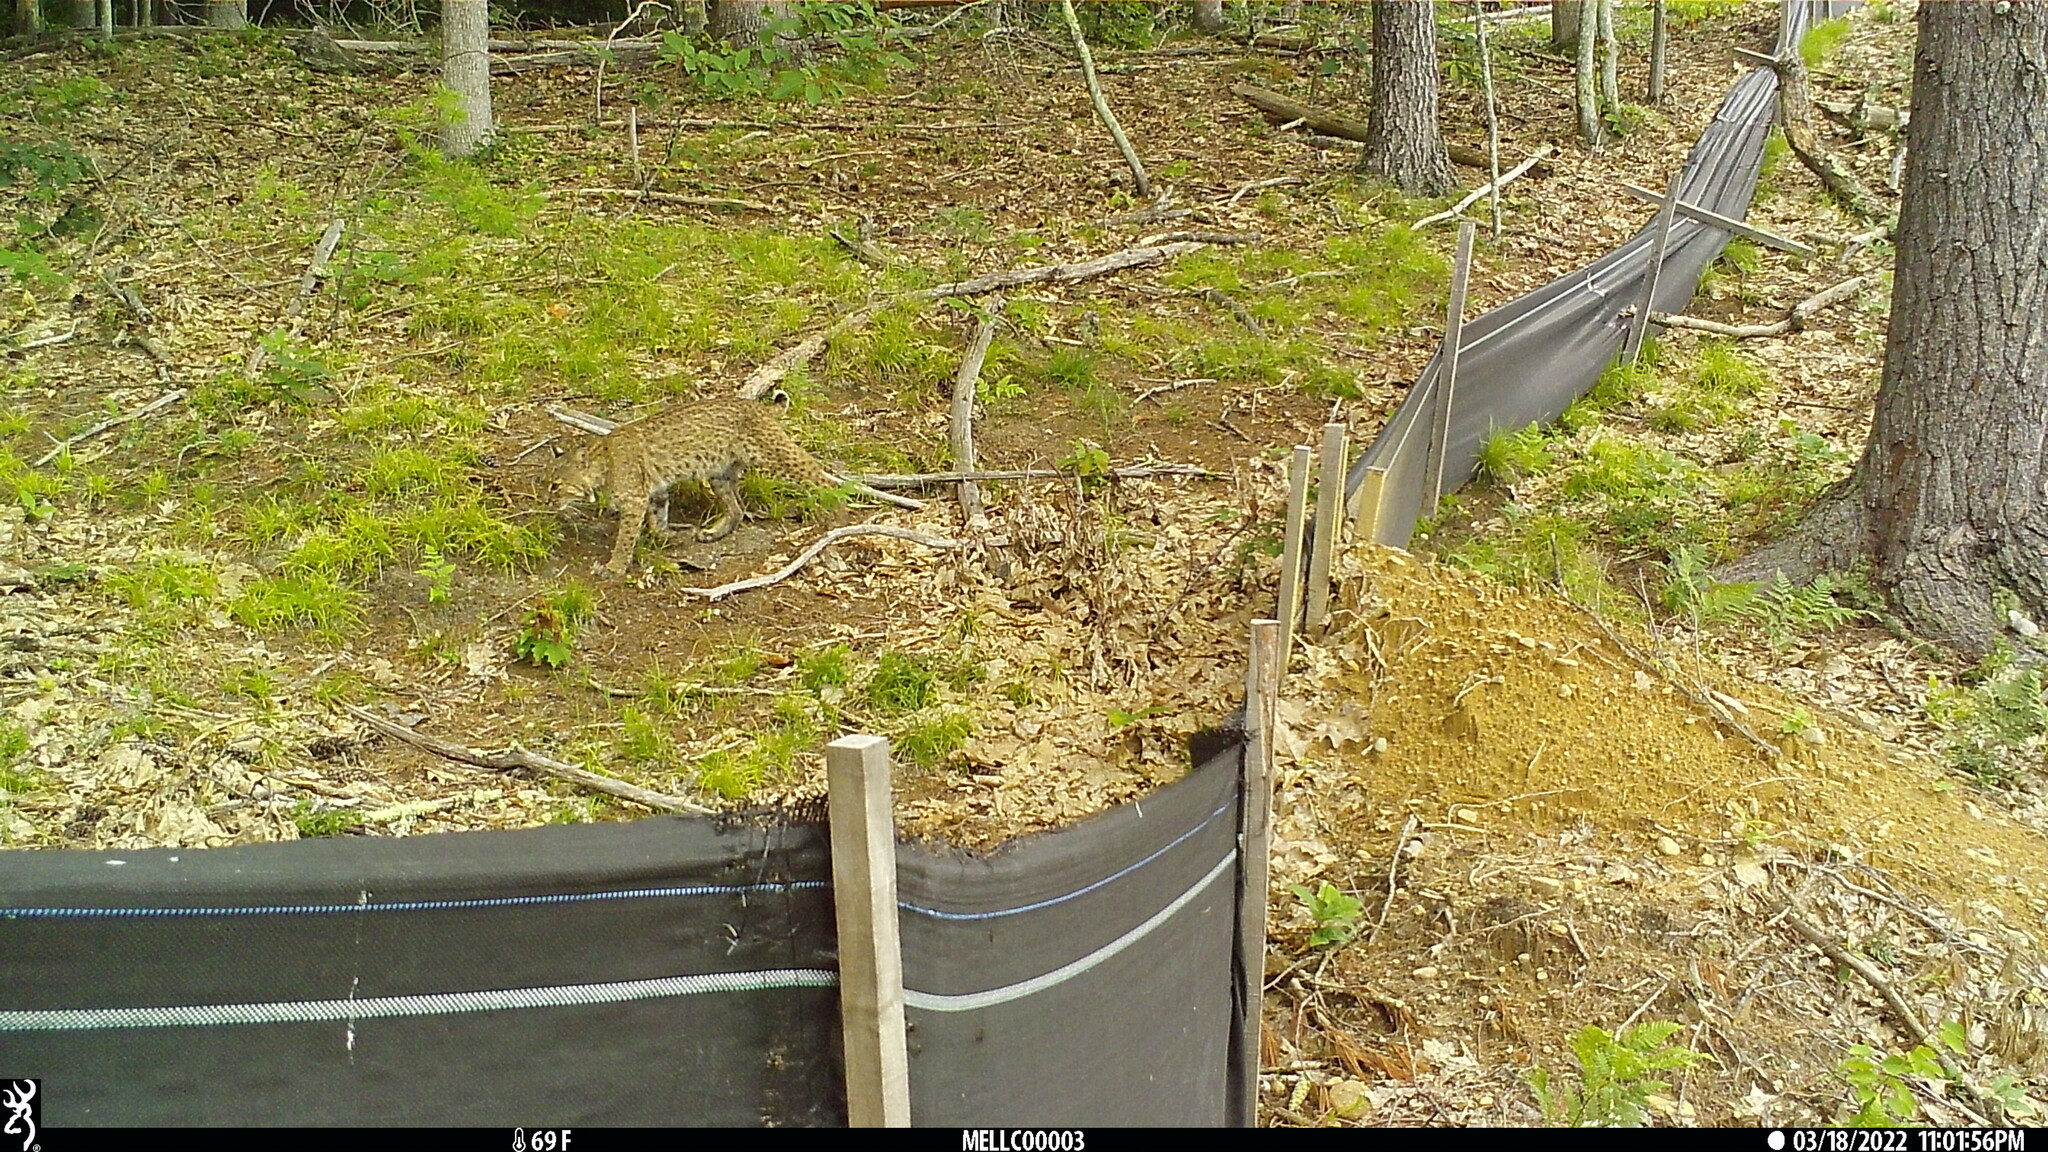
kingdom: Animalia
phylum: Chordata
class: Mammalia
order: Carnivora
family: Felidae
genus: Lynx
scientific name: Lynx rufus
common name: Bobcat
